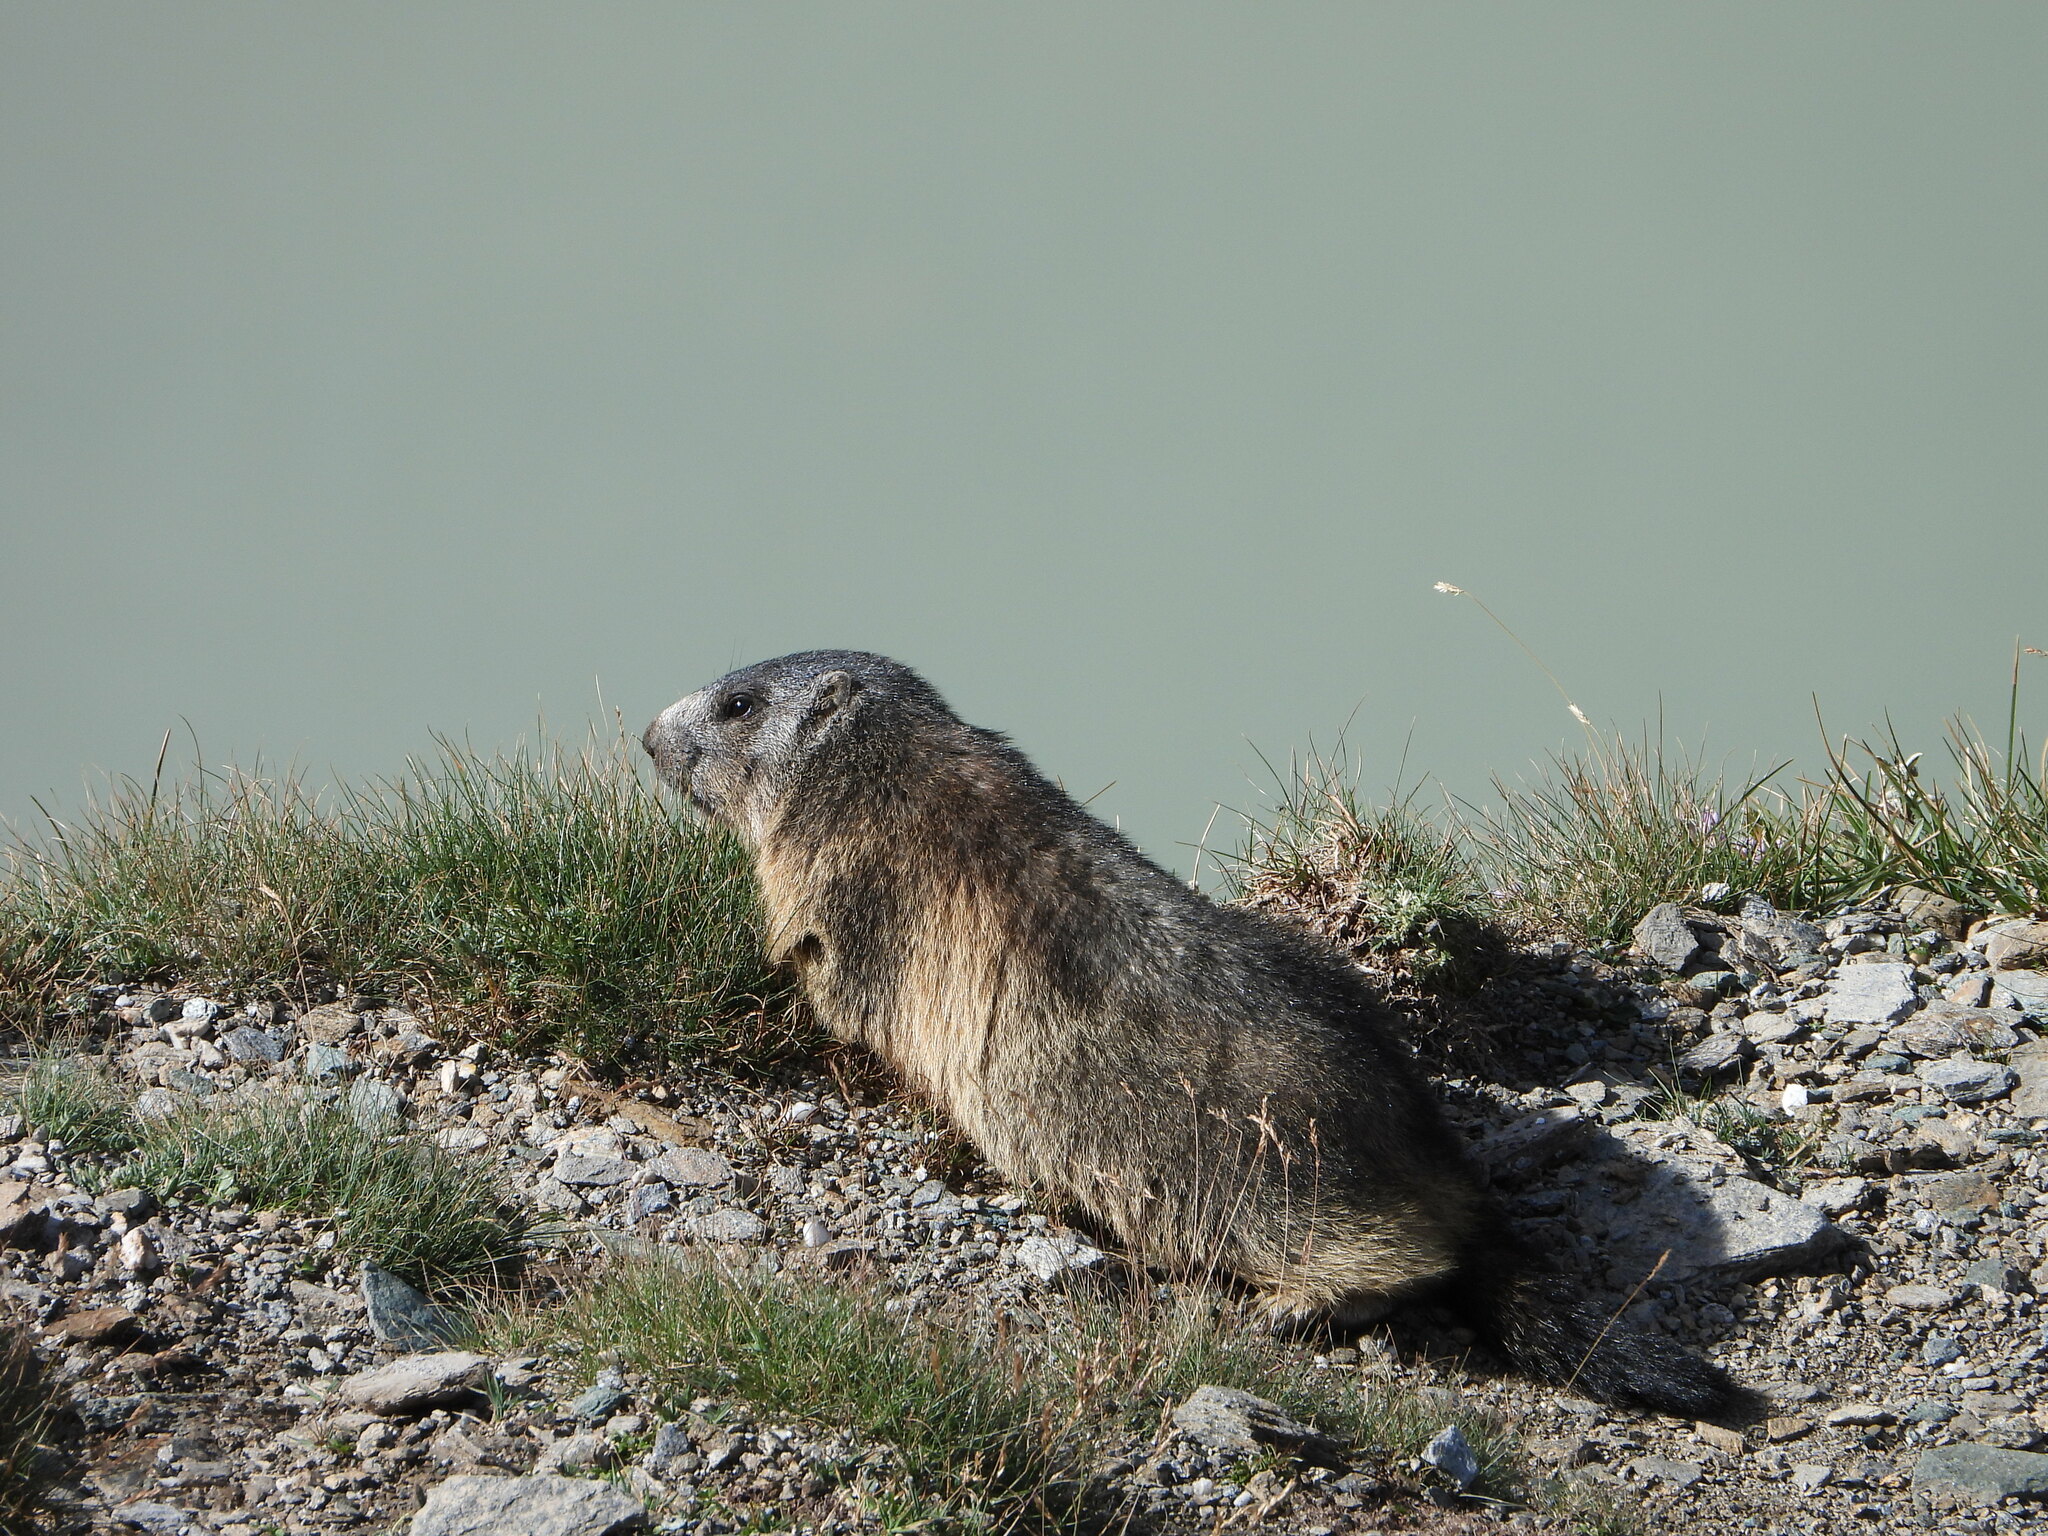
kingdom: Animalia
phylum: Chordata
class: Mammalia
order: Rodentia
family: Sciuridae
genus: Marmota
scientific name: Marmota marmota
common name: Alpine marmot
